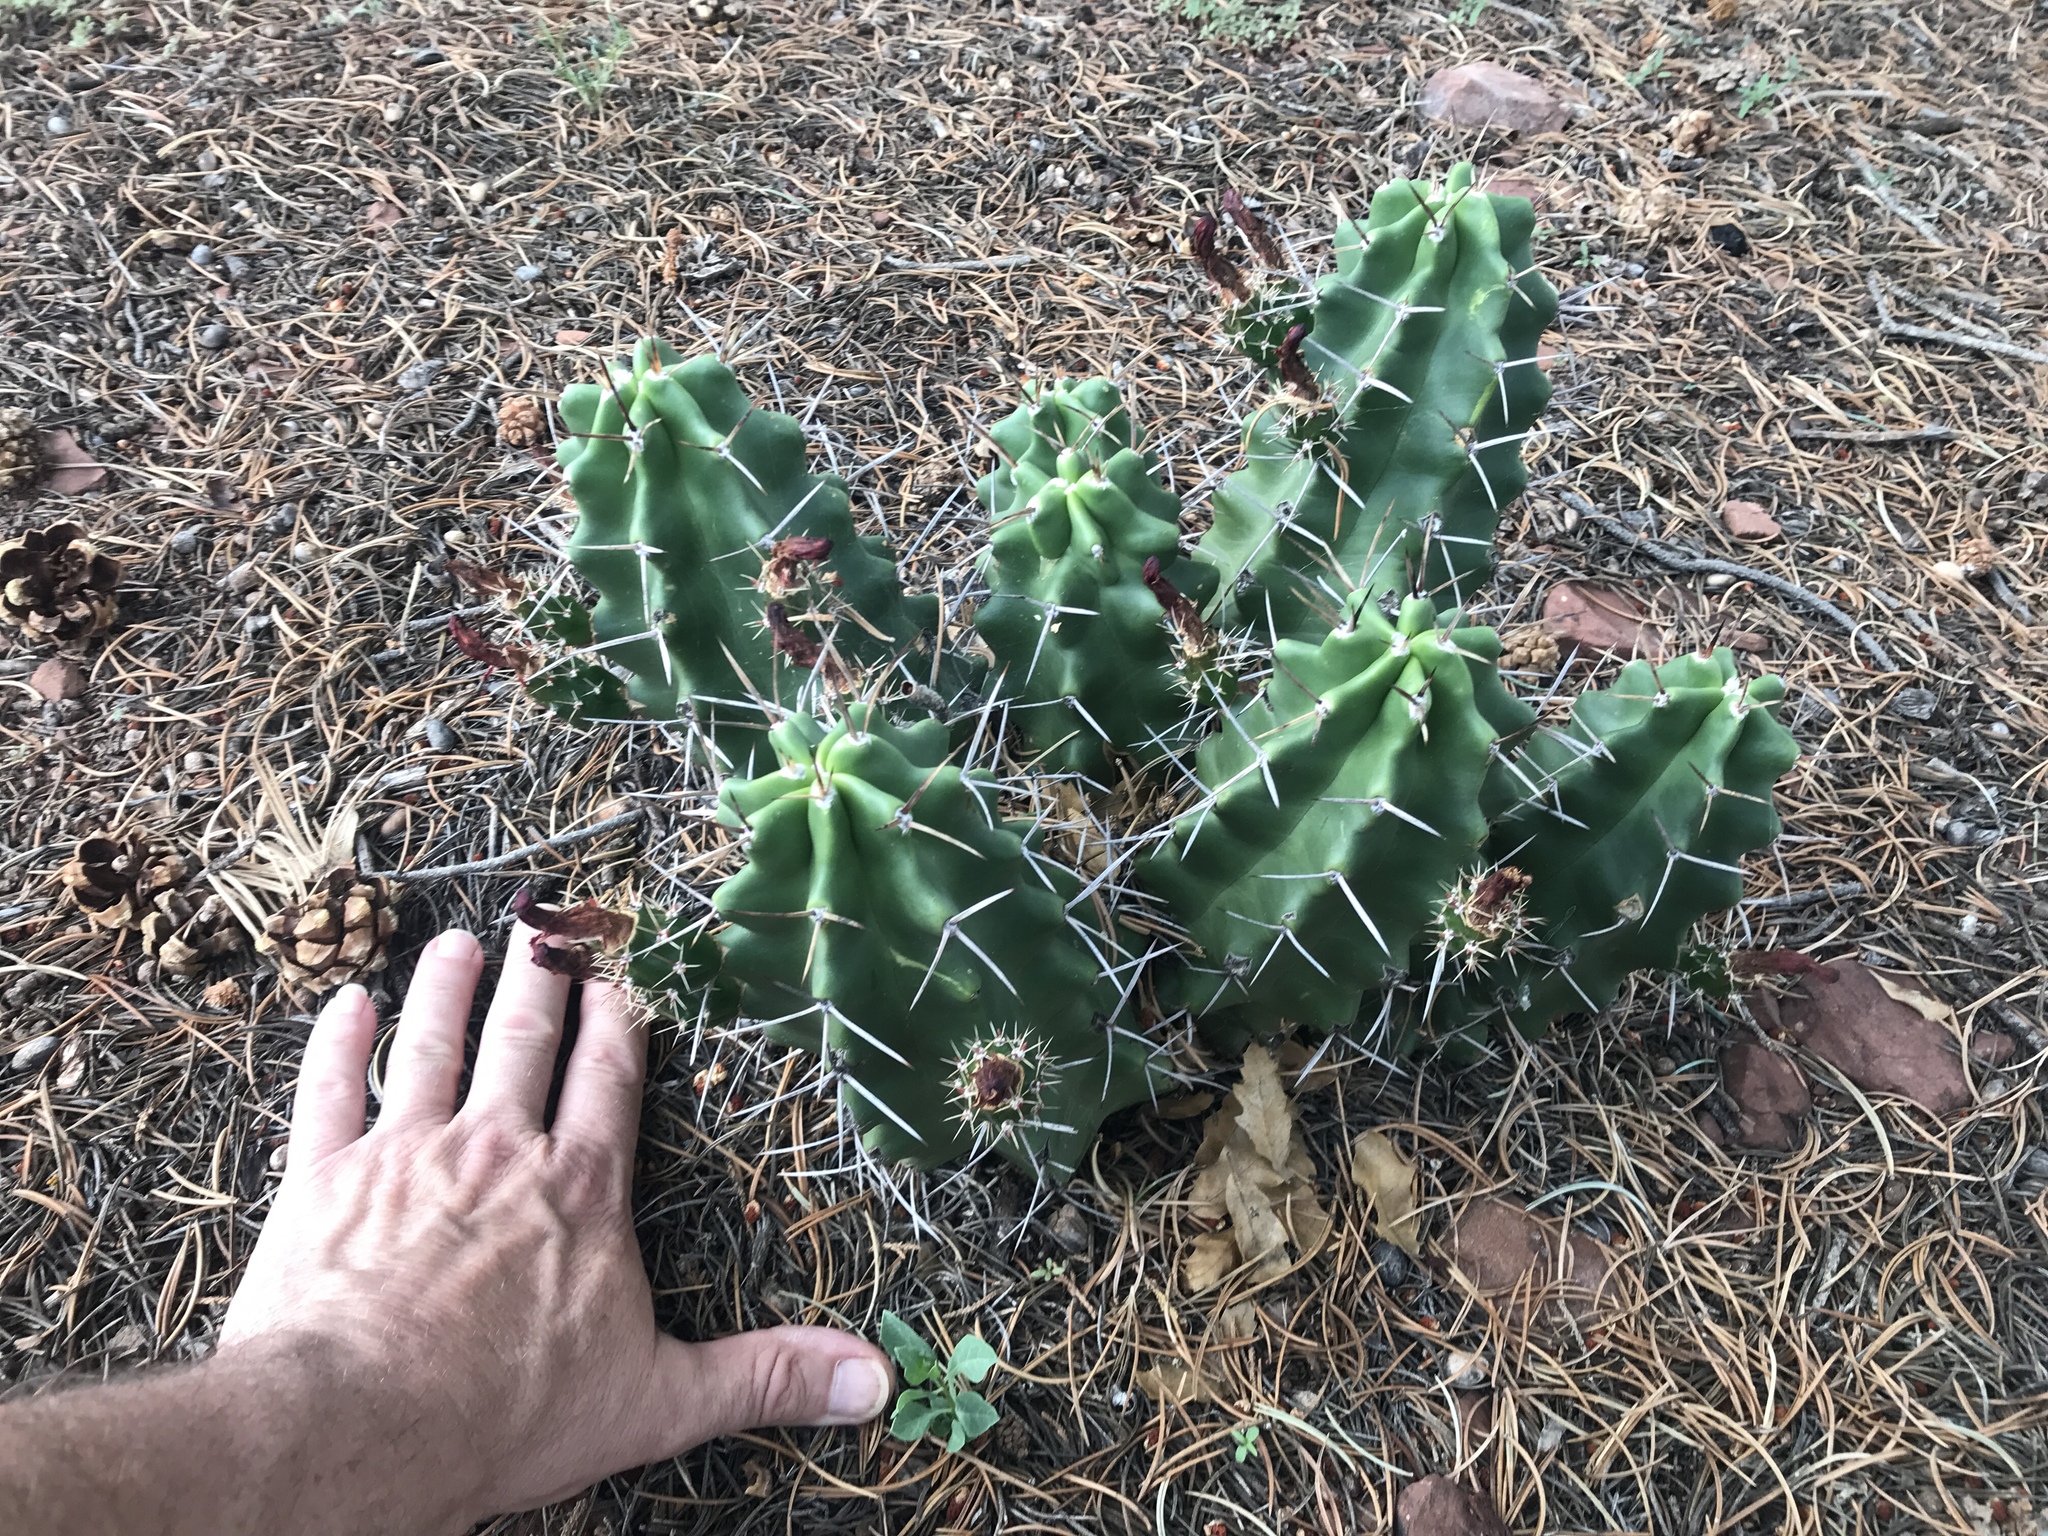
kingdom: Plantae
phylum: Tracheophyta
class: Magnoliopsida
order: Caryophyllales
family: Cactaceae
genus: Echinocereus
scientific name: Echinocereus triglochidiatus
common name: Claretcup hedgehog
